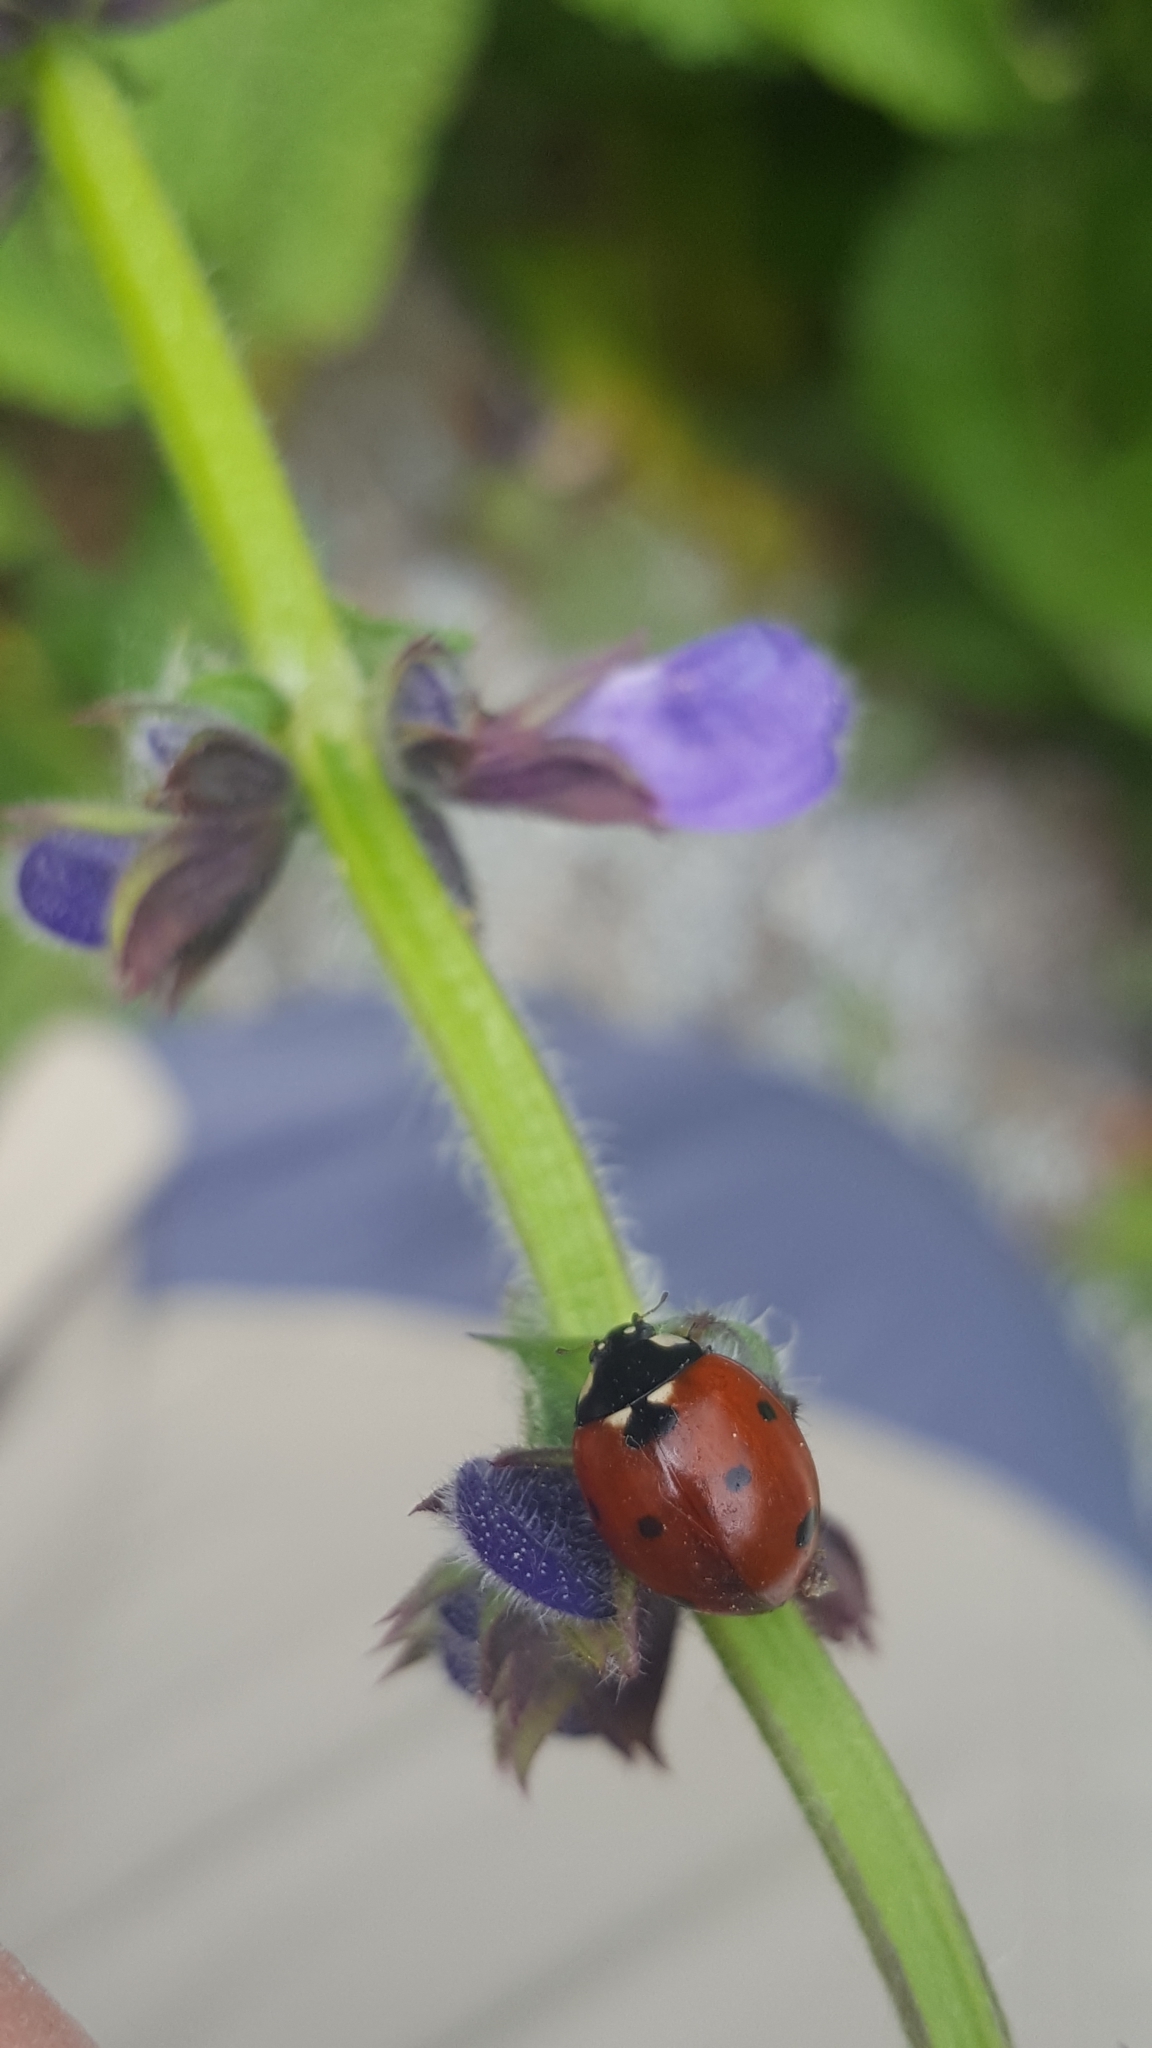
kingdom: Animalia
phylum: Arthropoda
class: Insecta
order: Coleoptera
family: Coccinellidae
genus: Coccinella
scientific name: Coccinella septempunctata
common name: Sevenspotted lady beetle
